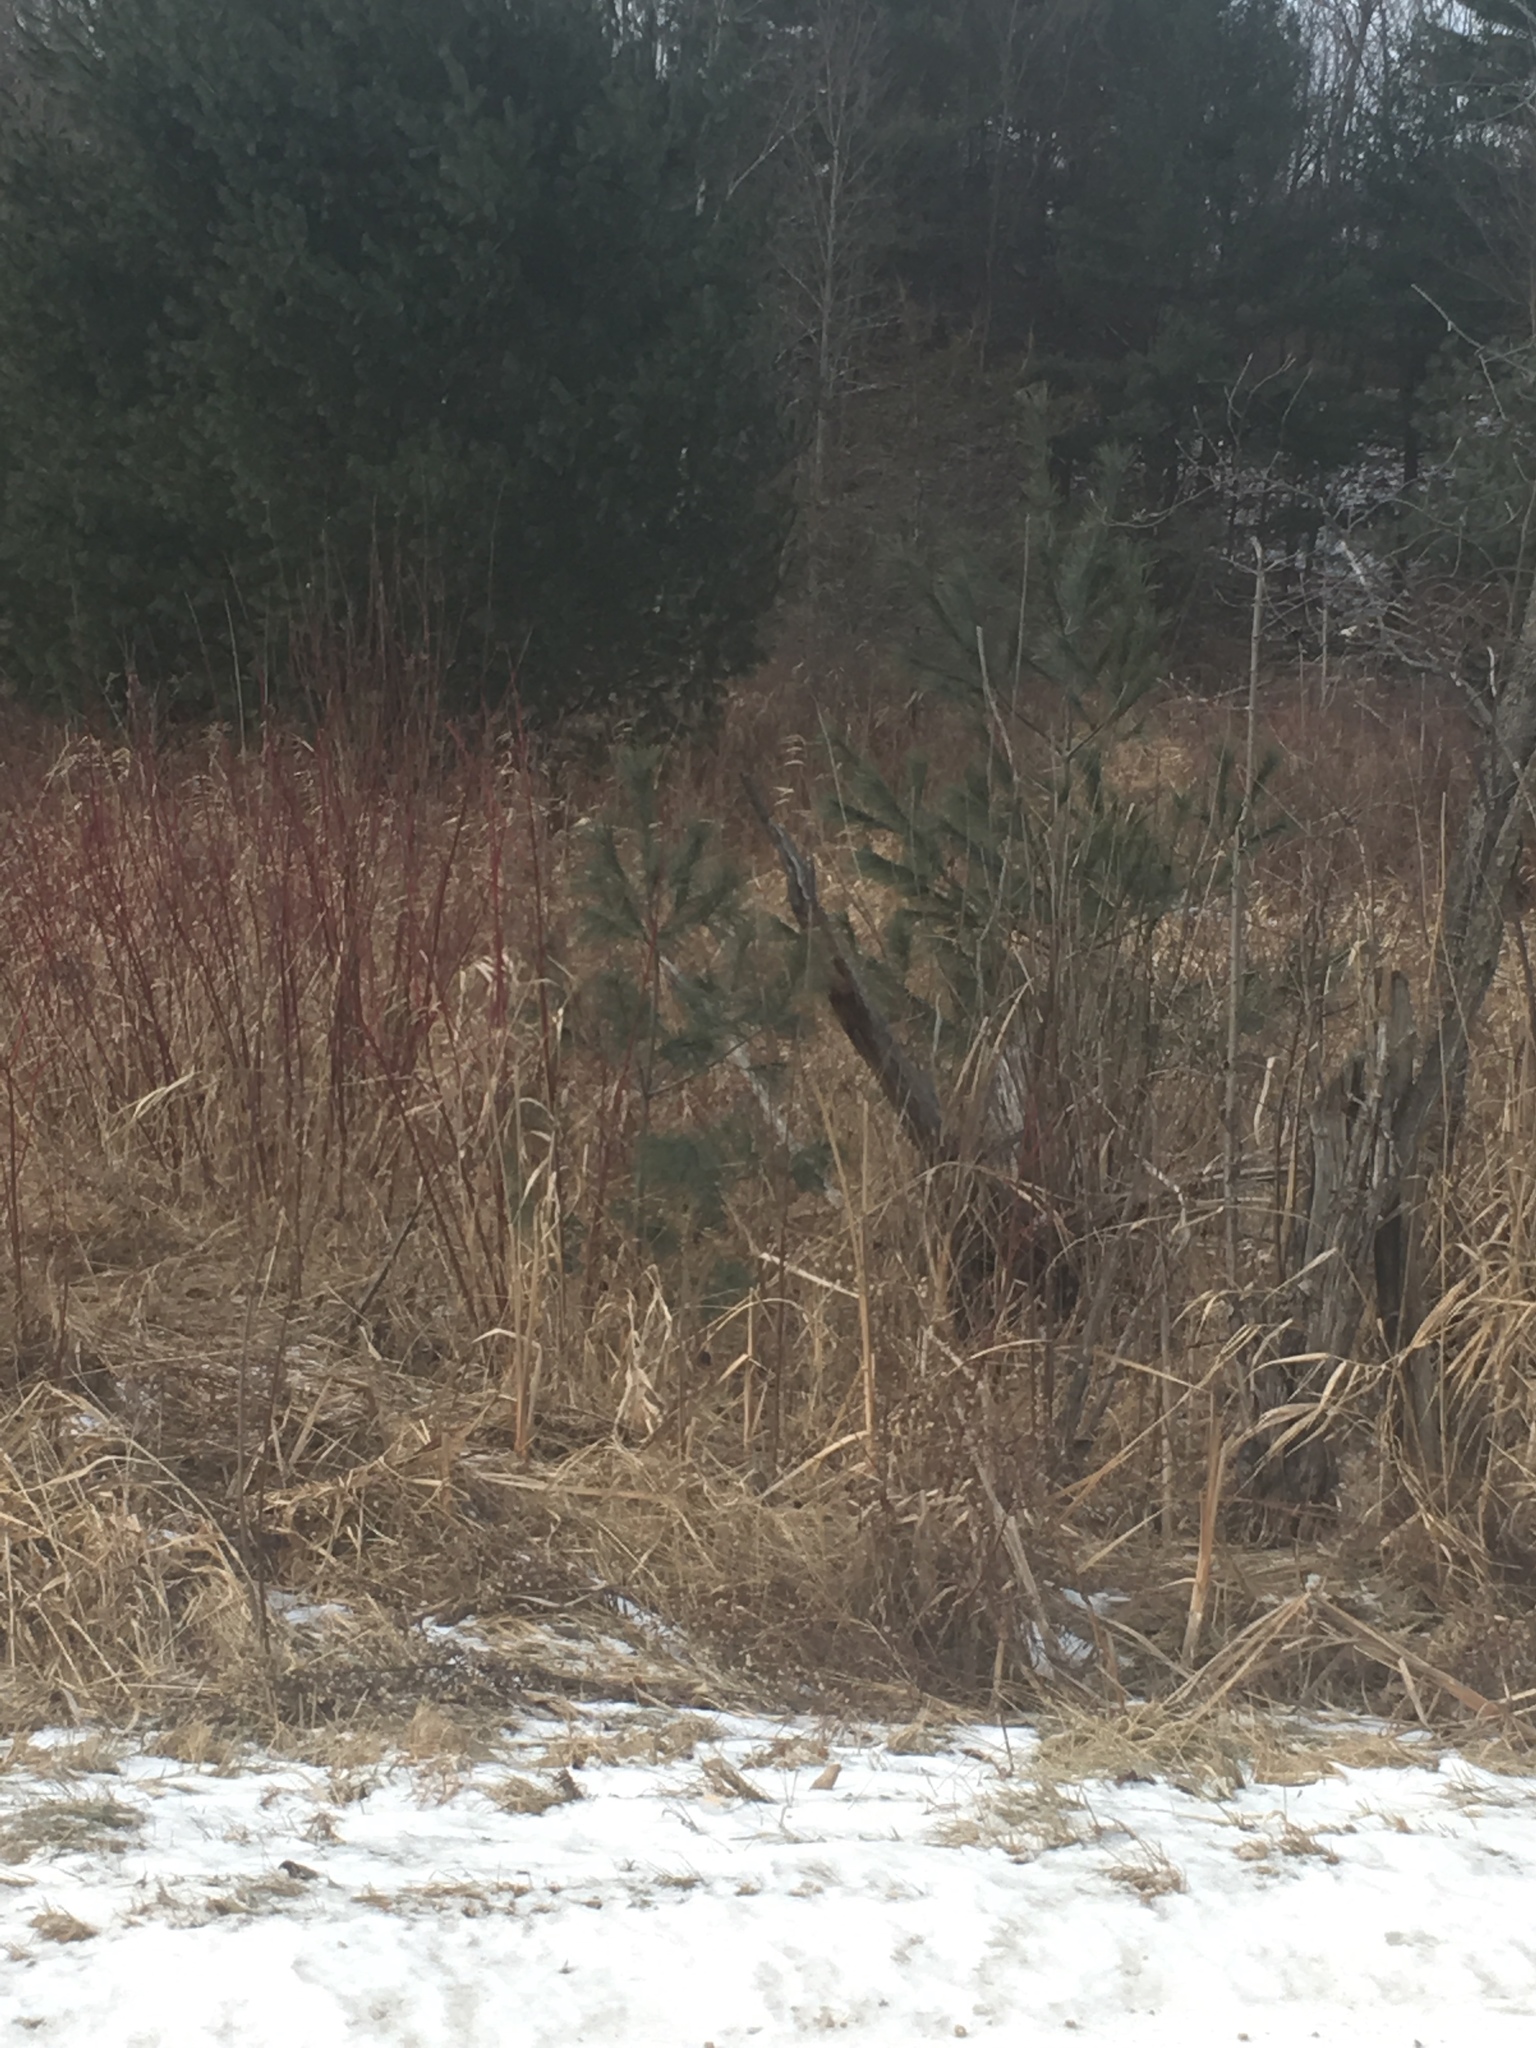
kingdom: Plantae
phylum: Tracheophyta
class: Magnoliopsida
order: Cornales
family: Cornaceae
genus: Cornus
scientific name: Cornus sericea
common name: Red-osier dogwood
